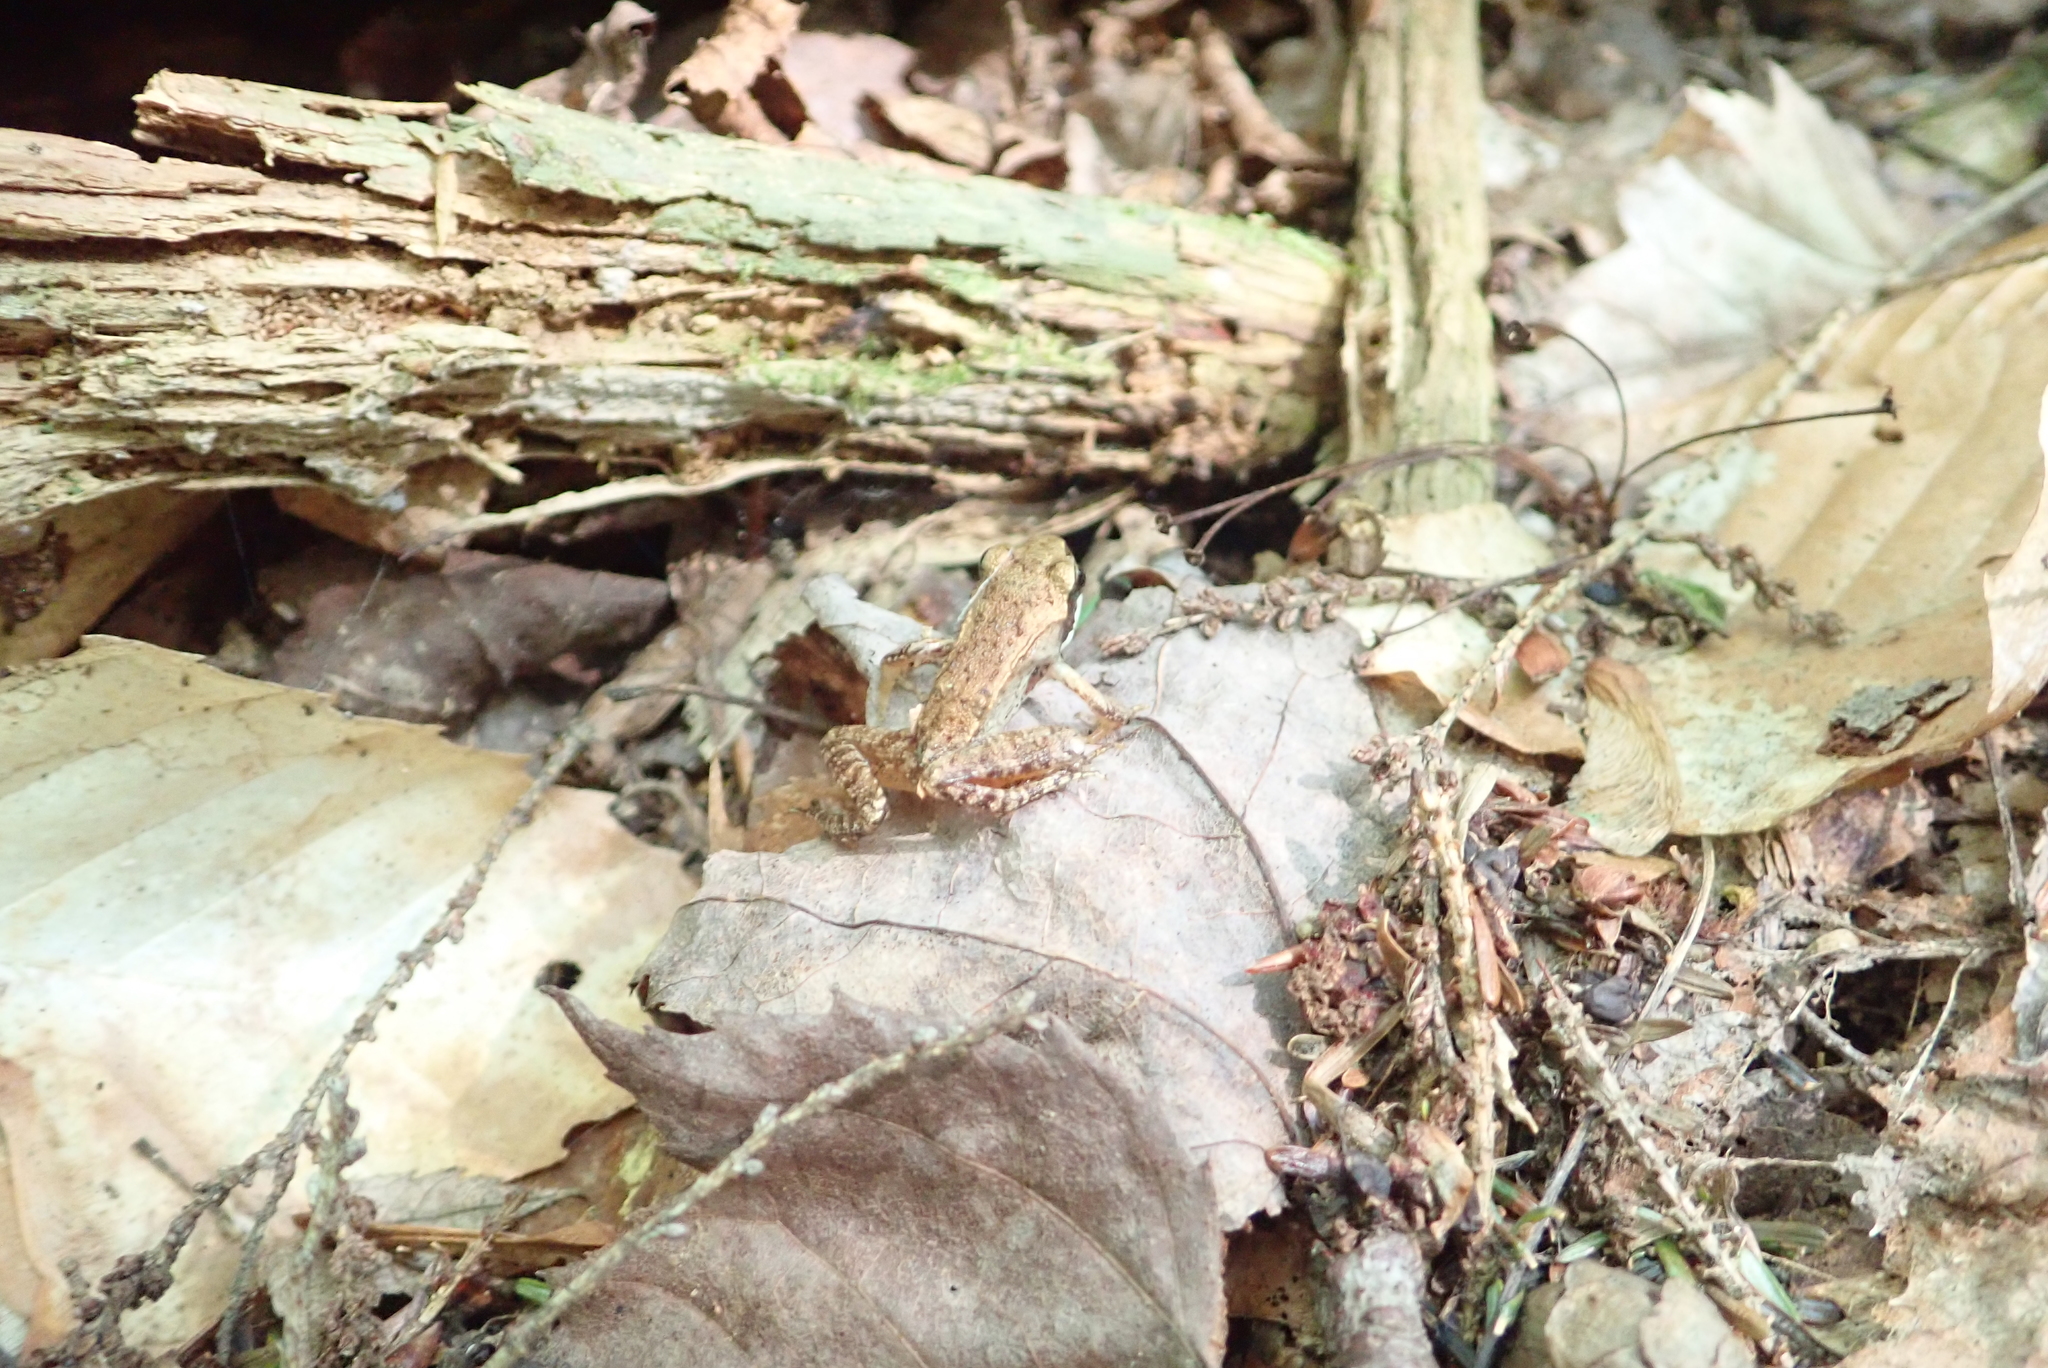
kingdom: Animalia
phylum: Chordata
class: Amphibia
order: Anura
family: Ranidae
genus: Lithobates
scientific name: Lithobates sylvaticus
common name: Wood frog
